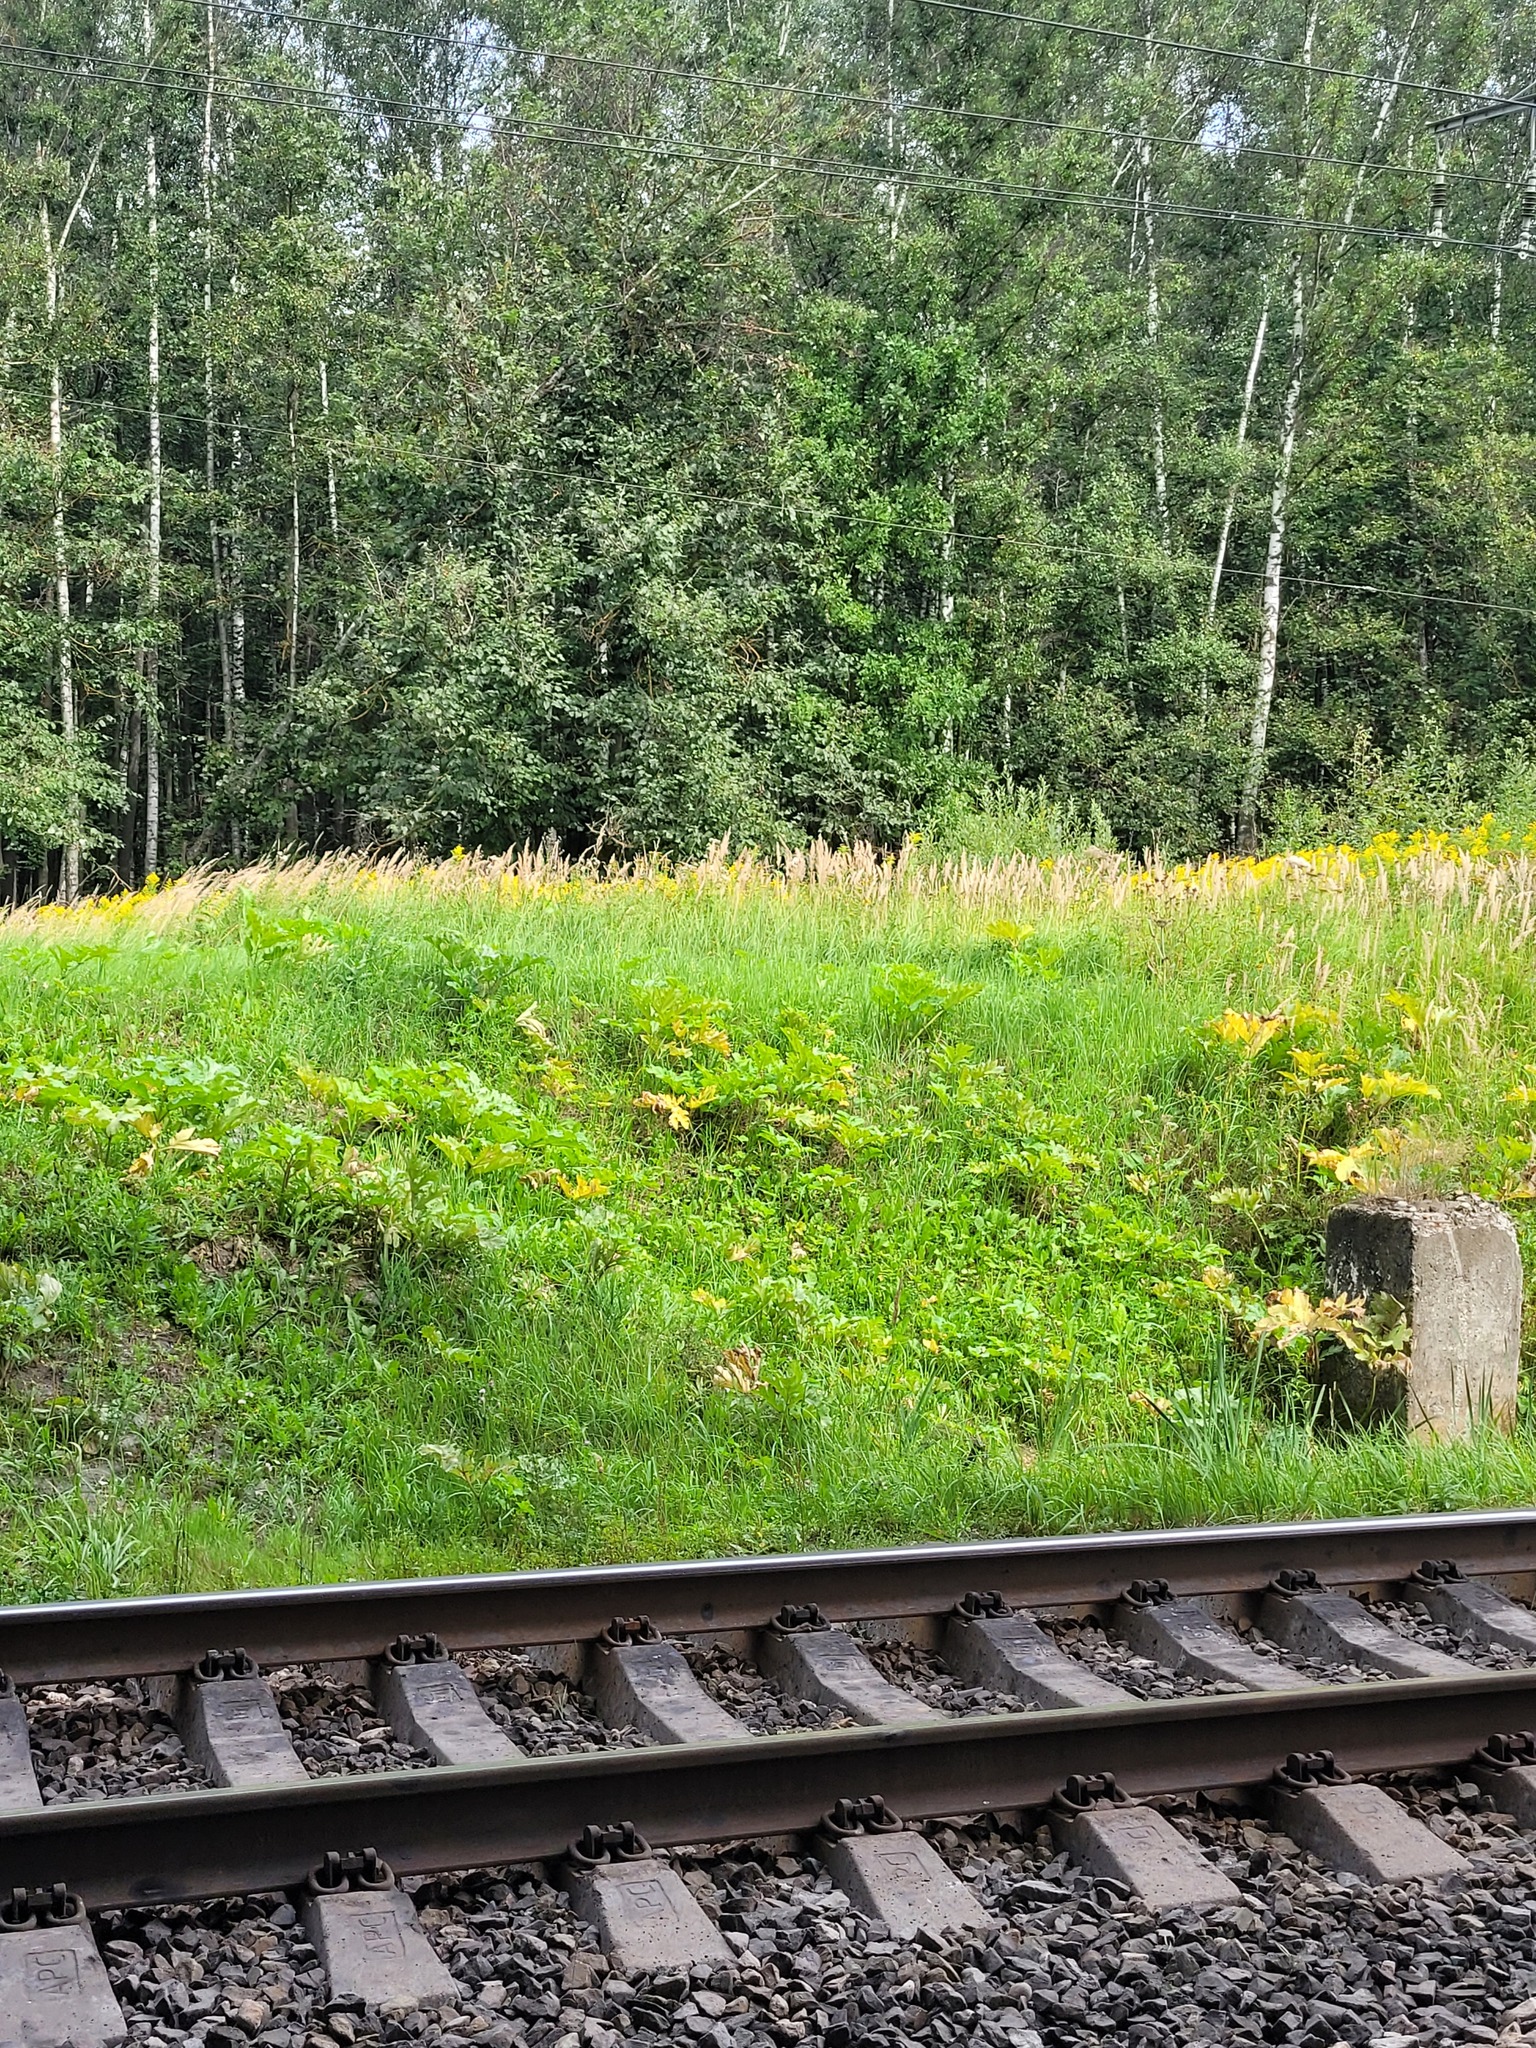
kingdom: Plantae
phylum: Tracheophyta
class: Magnoliopsida
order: Apiales
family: Apiaceae
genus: Heracleum
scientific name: Heracleum sosnowskyi
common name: Sosnowsky's hogweed
